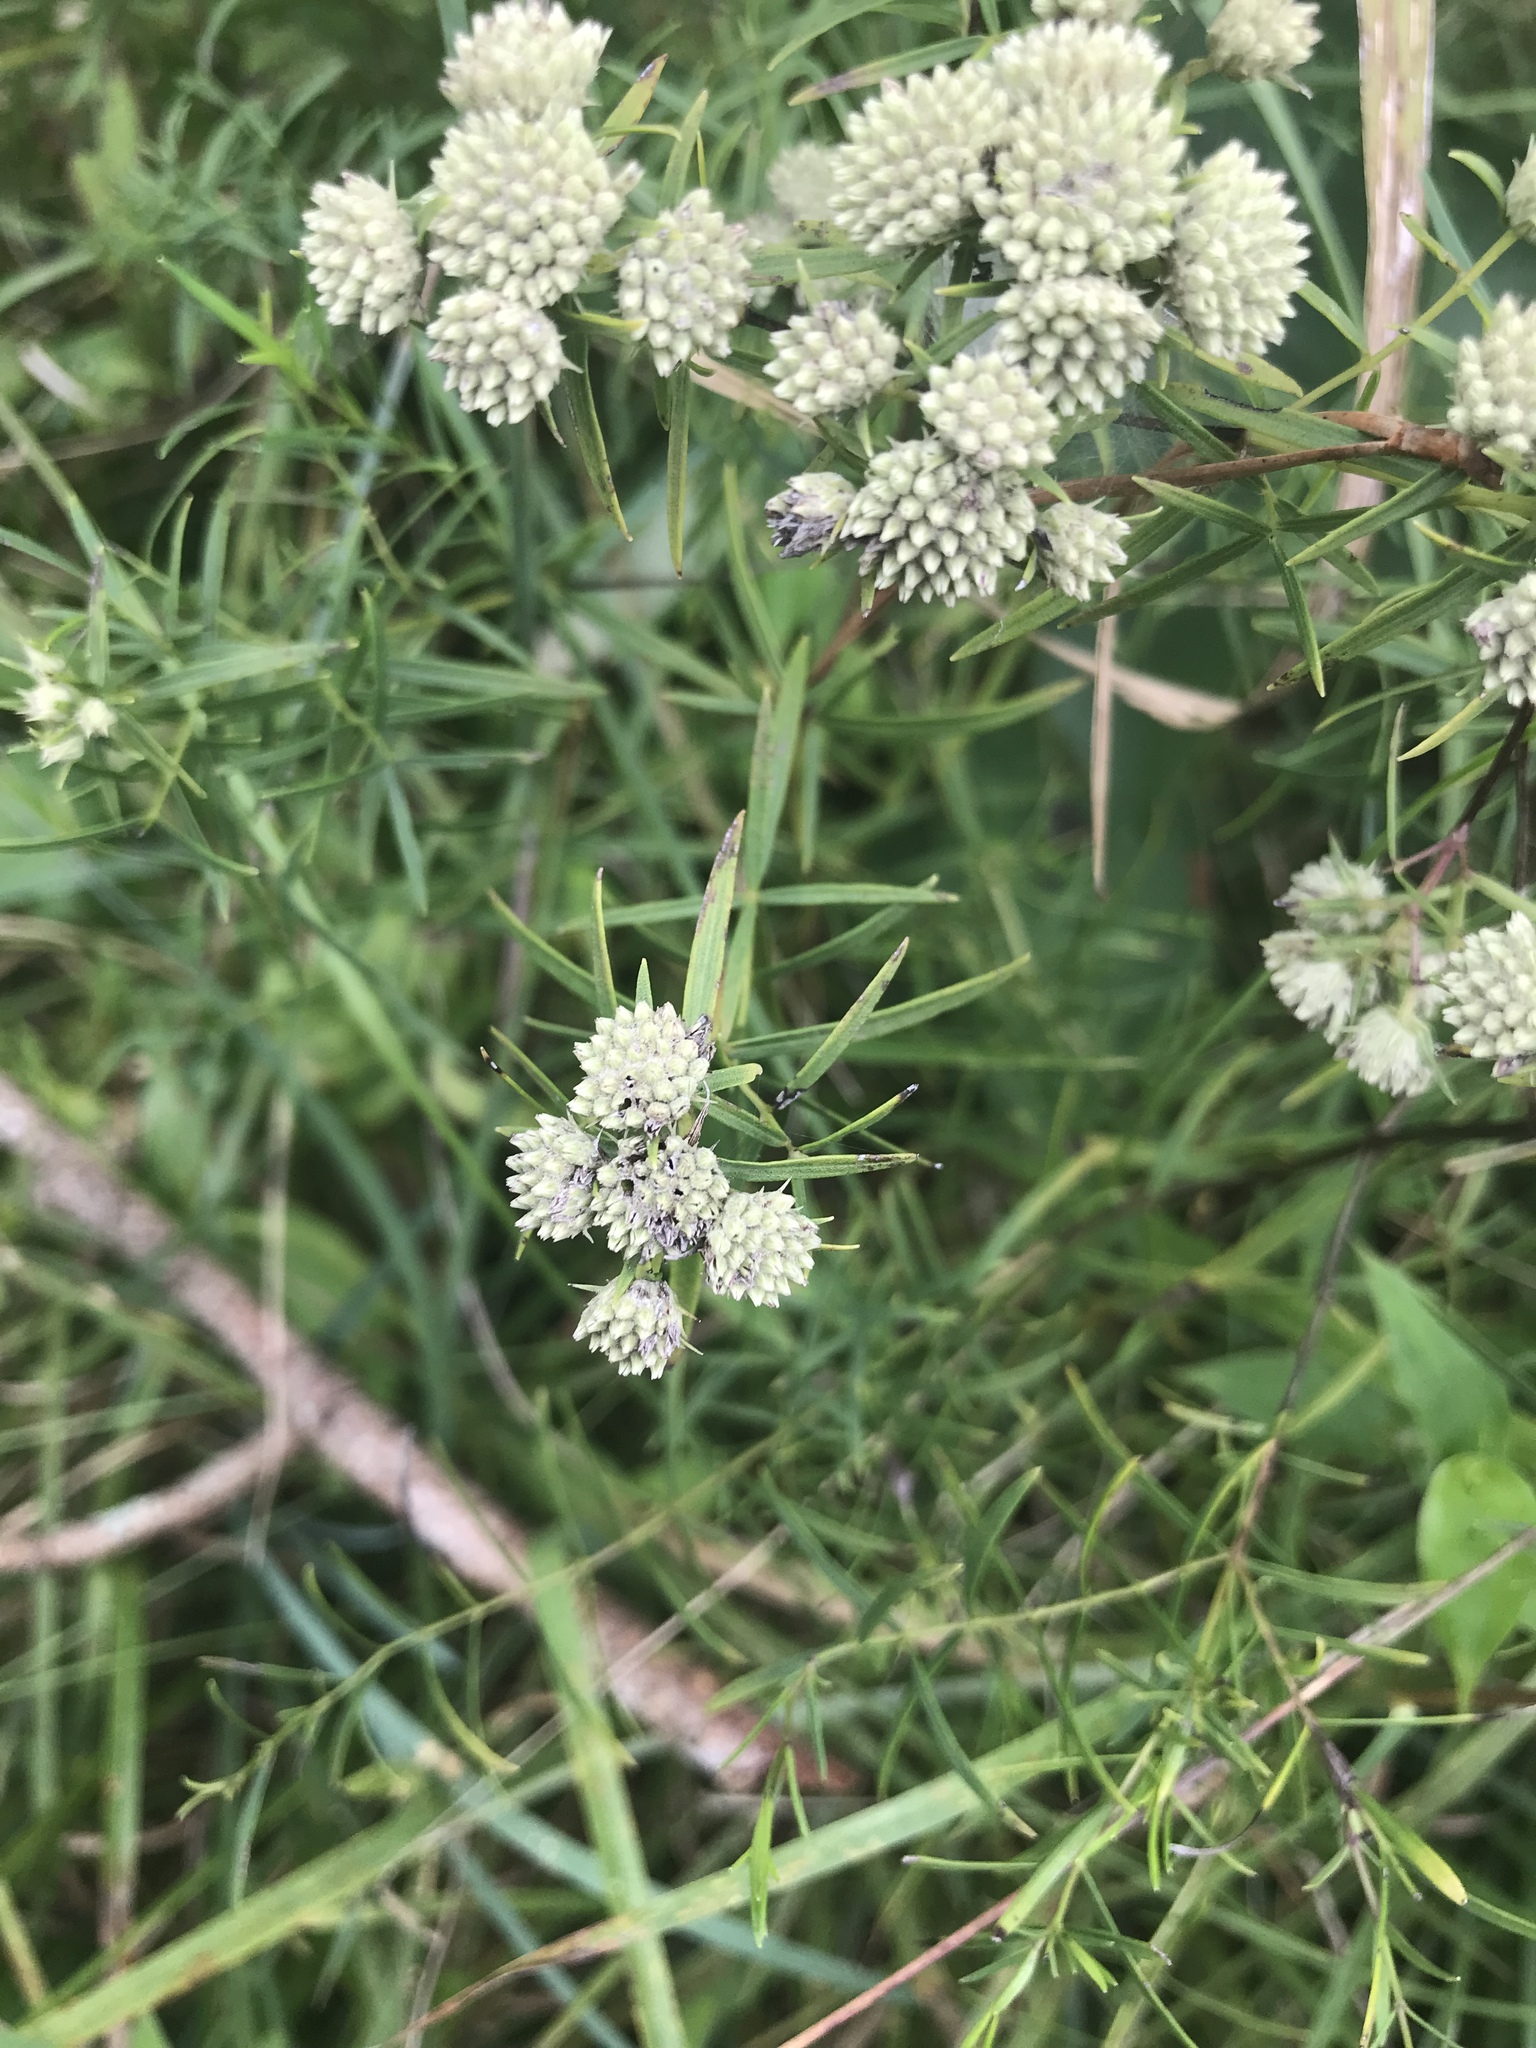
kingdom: Plantae
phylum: Tracheophyta
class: Magnoliopsida
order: Lamiales
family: Lamiaceae
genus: Pycnanthemum
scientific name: Pycnanthemum tenuifolium
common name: Narrow-leaf mountain-mint
